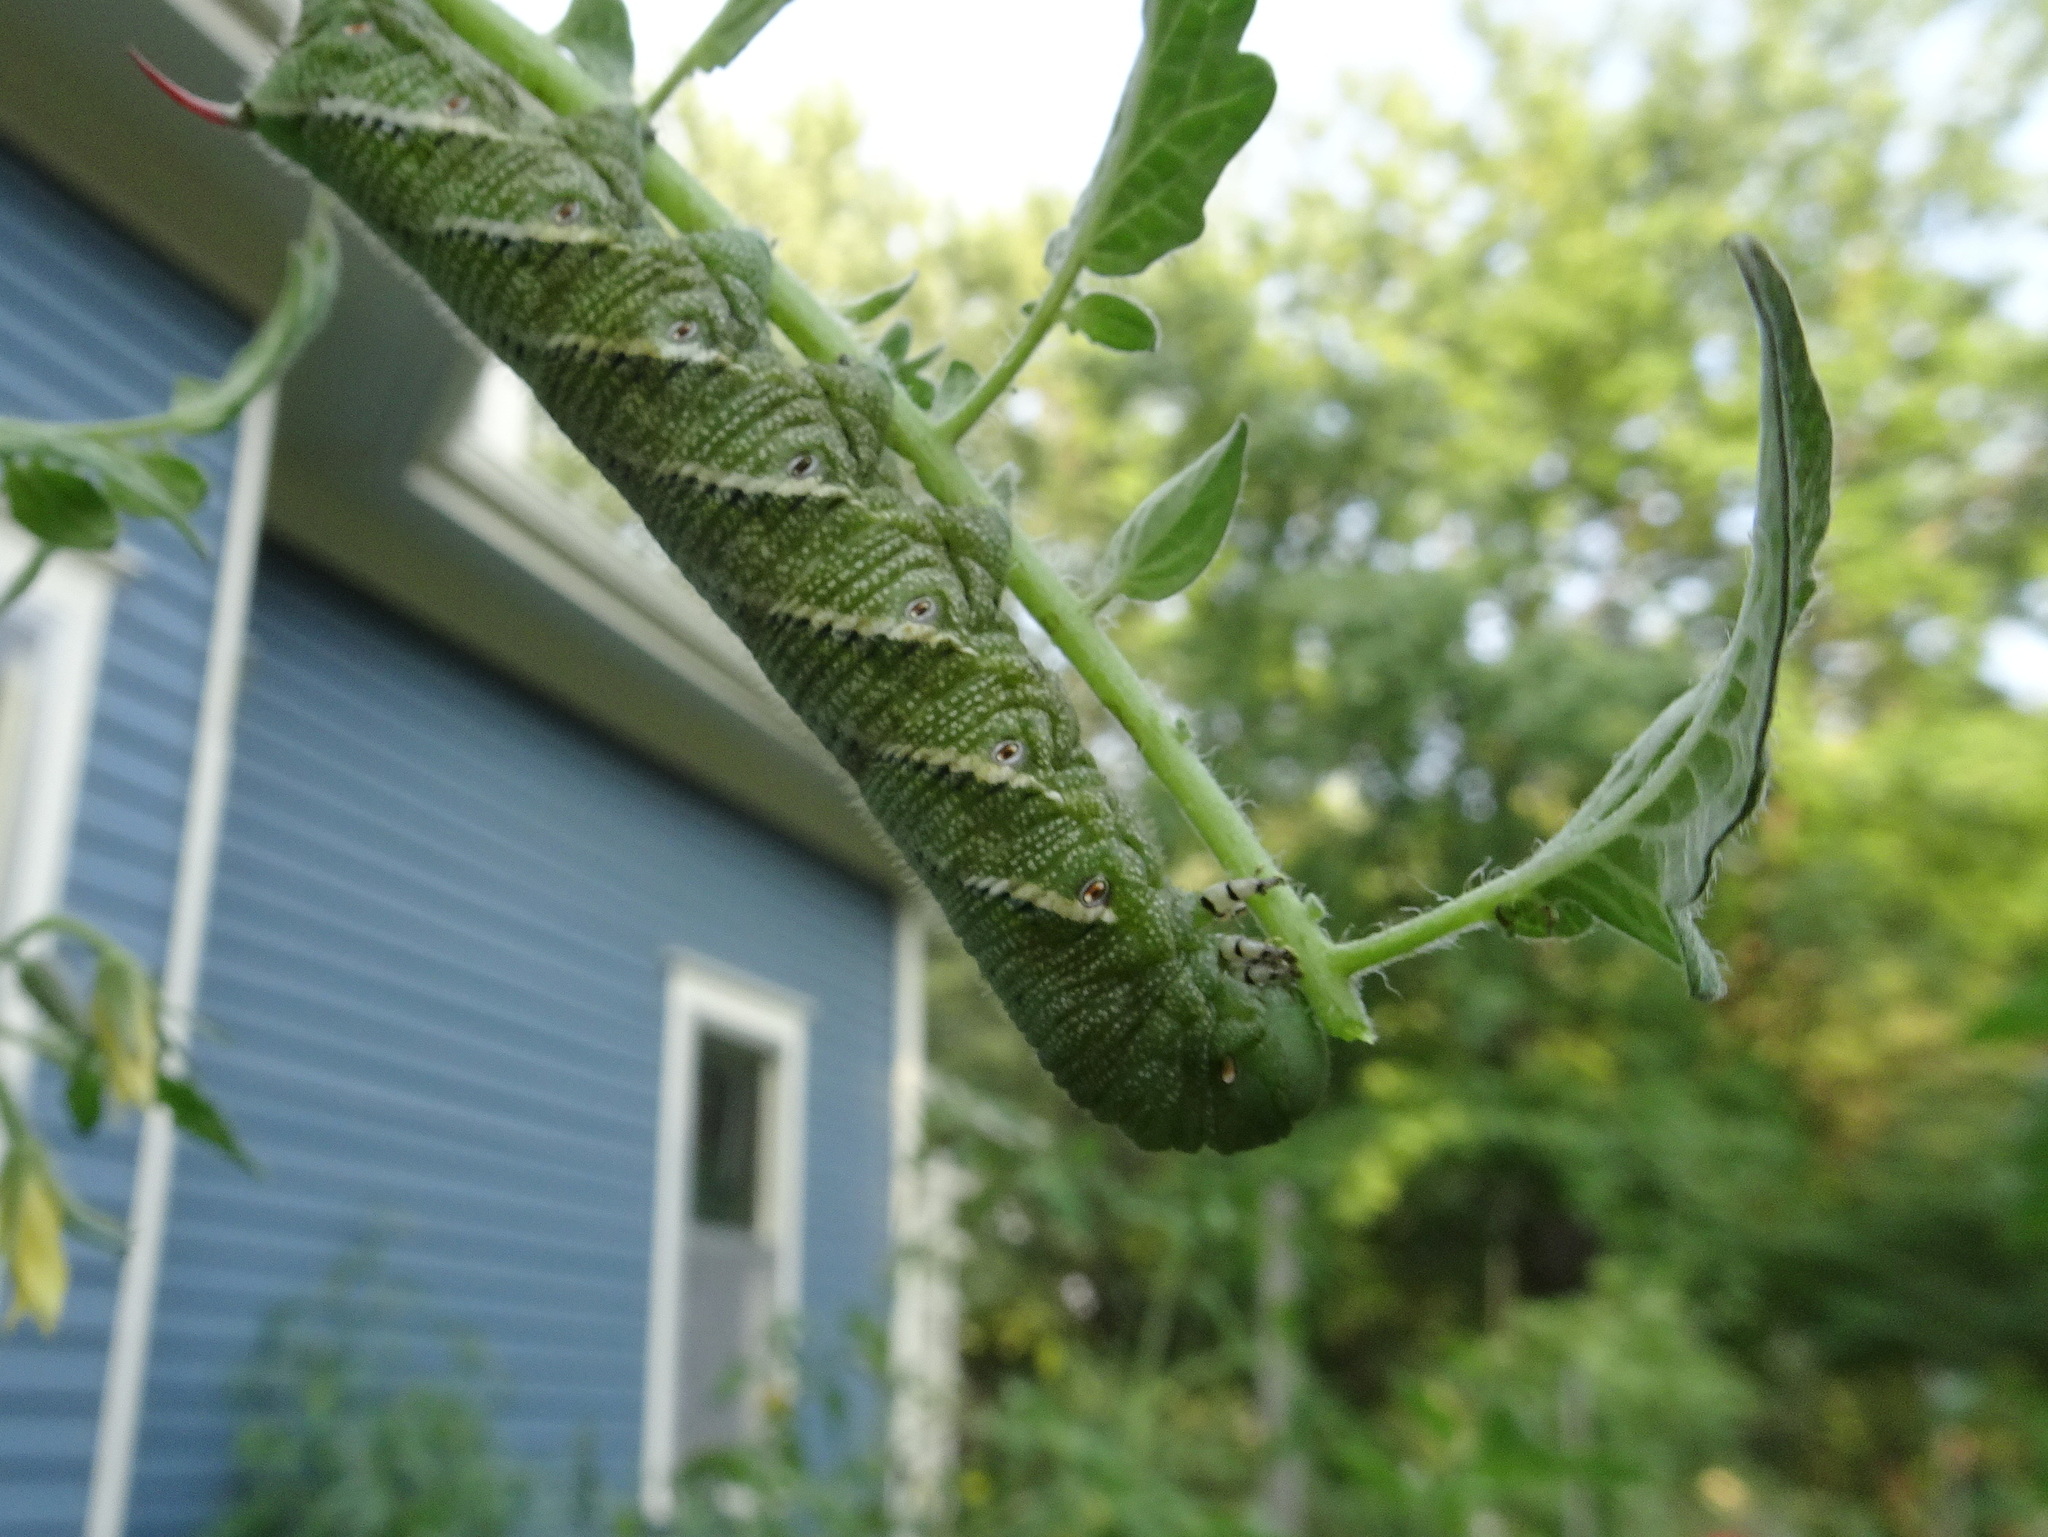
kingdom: Animalia
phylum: Arthropoda
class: Insecta
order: Lepidoptera
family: Sphingidae
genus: Manduca
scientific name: Manduca sexta
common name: Carolina sphinx
